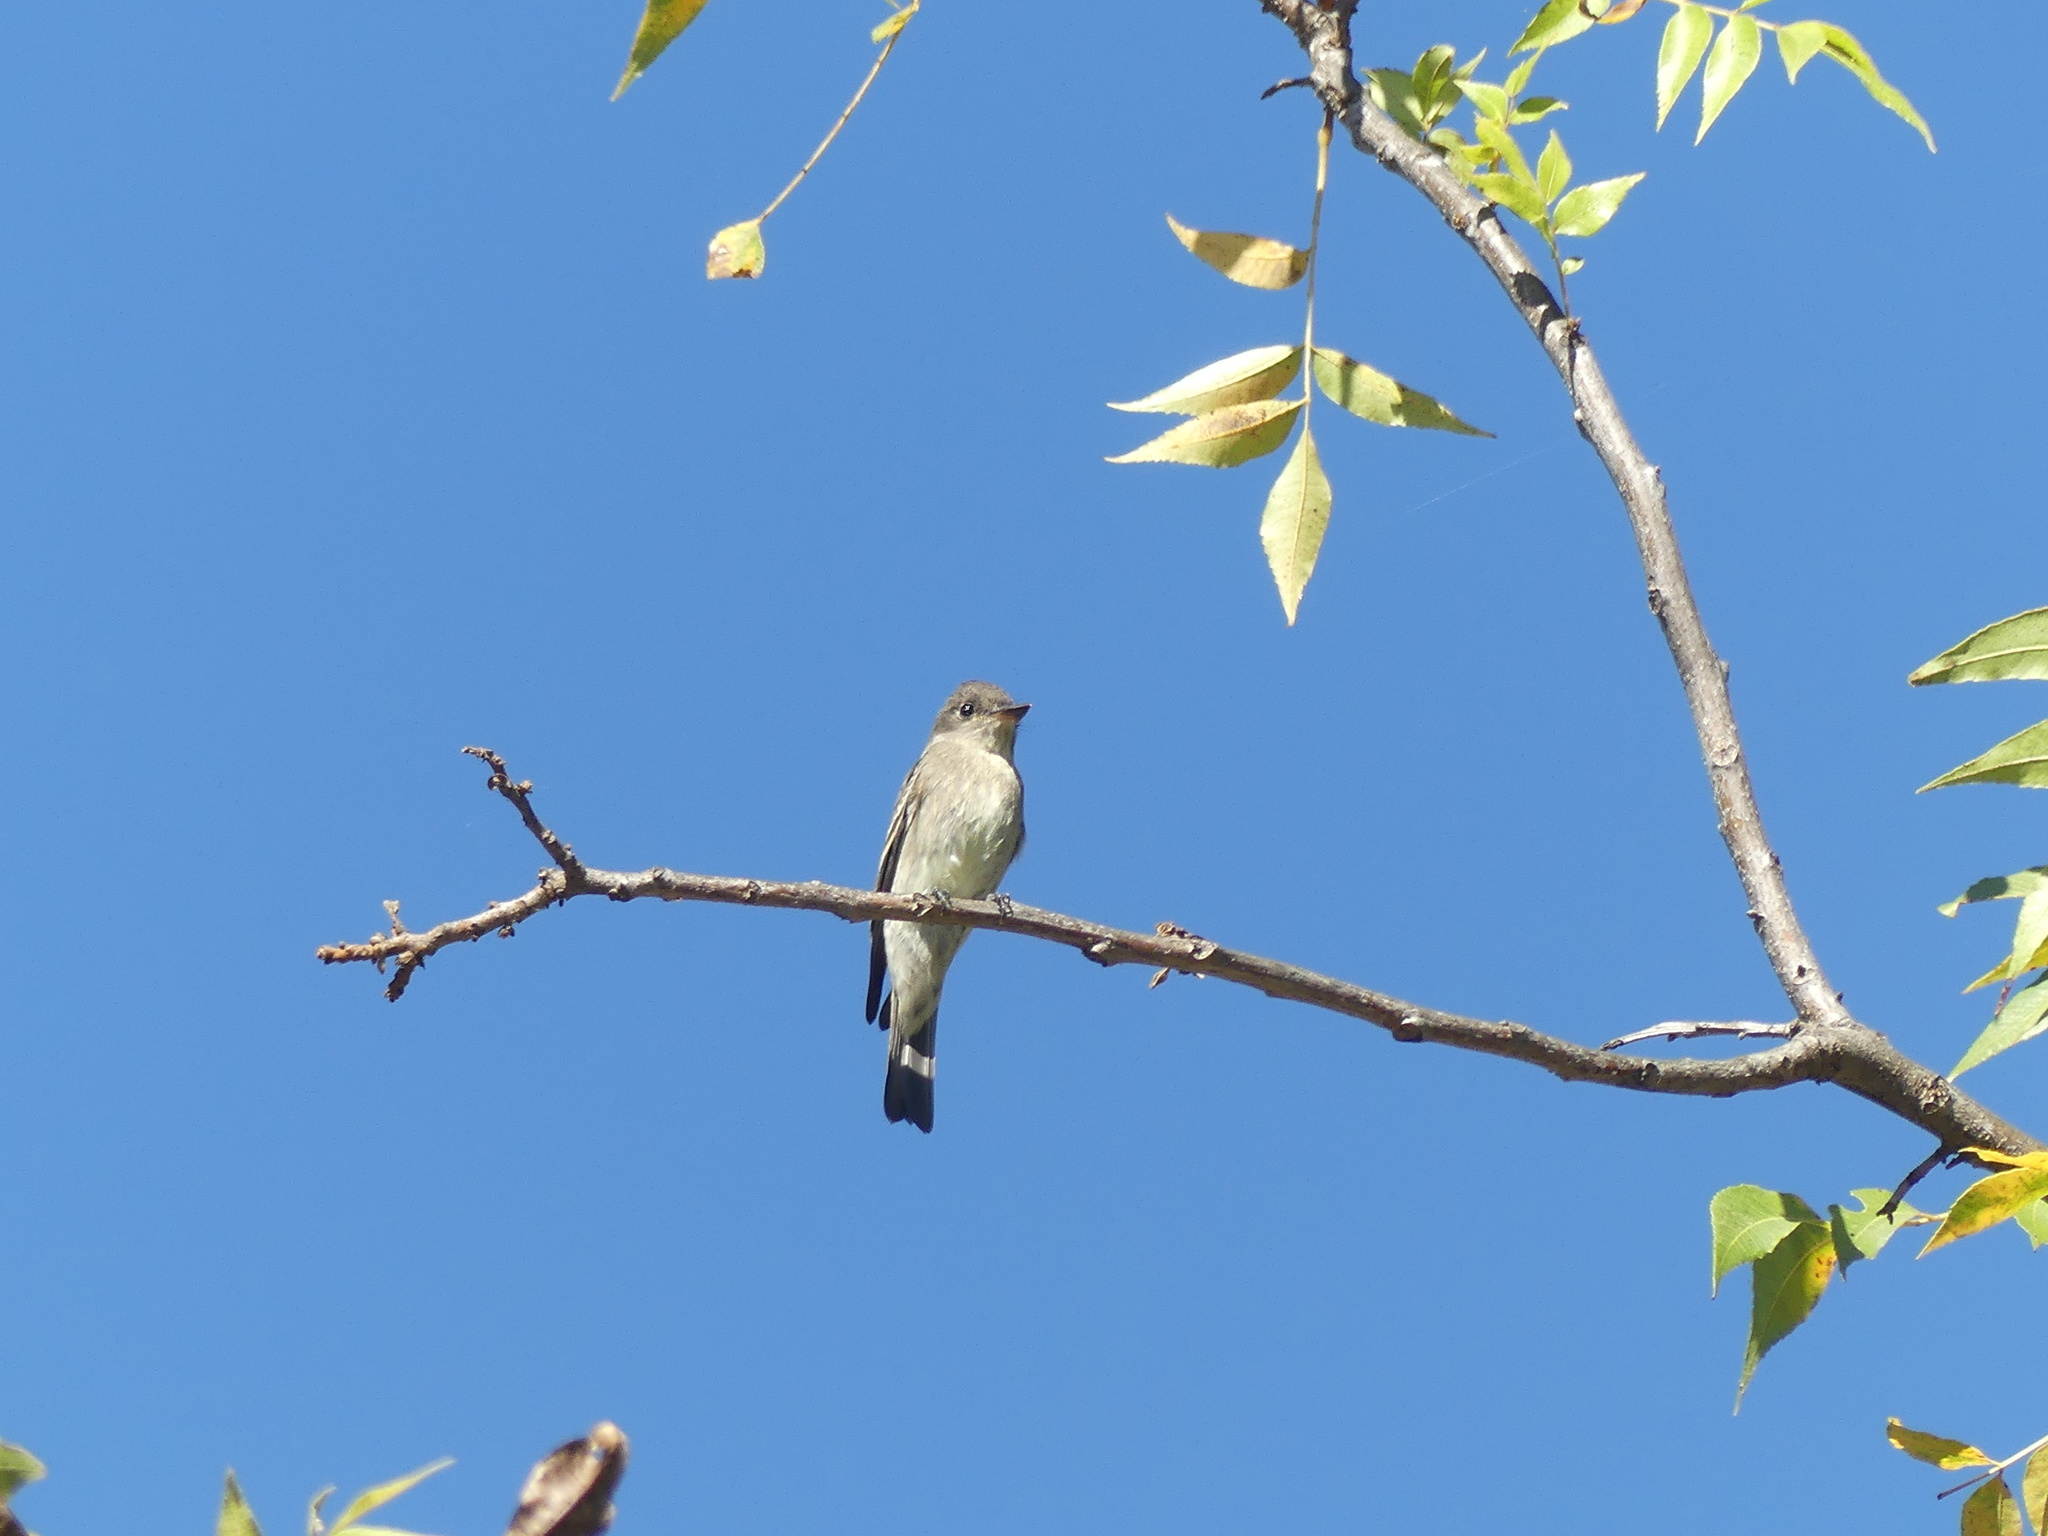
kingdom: Animalia
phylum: Chordata
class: Aves
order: Passeriformes
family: Tyrannidae
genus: Contopus
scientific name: Contopus sordidulus
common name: Western wood-pewee
